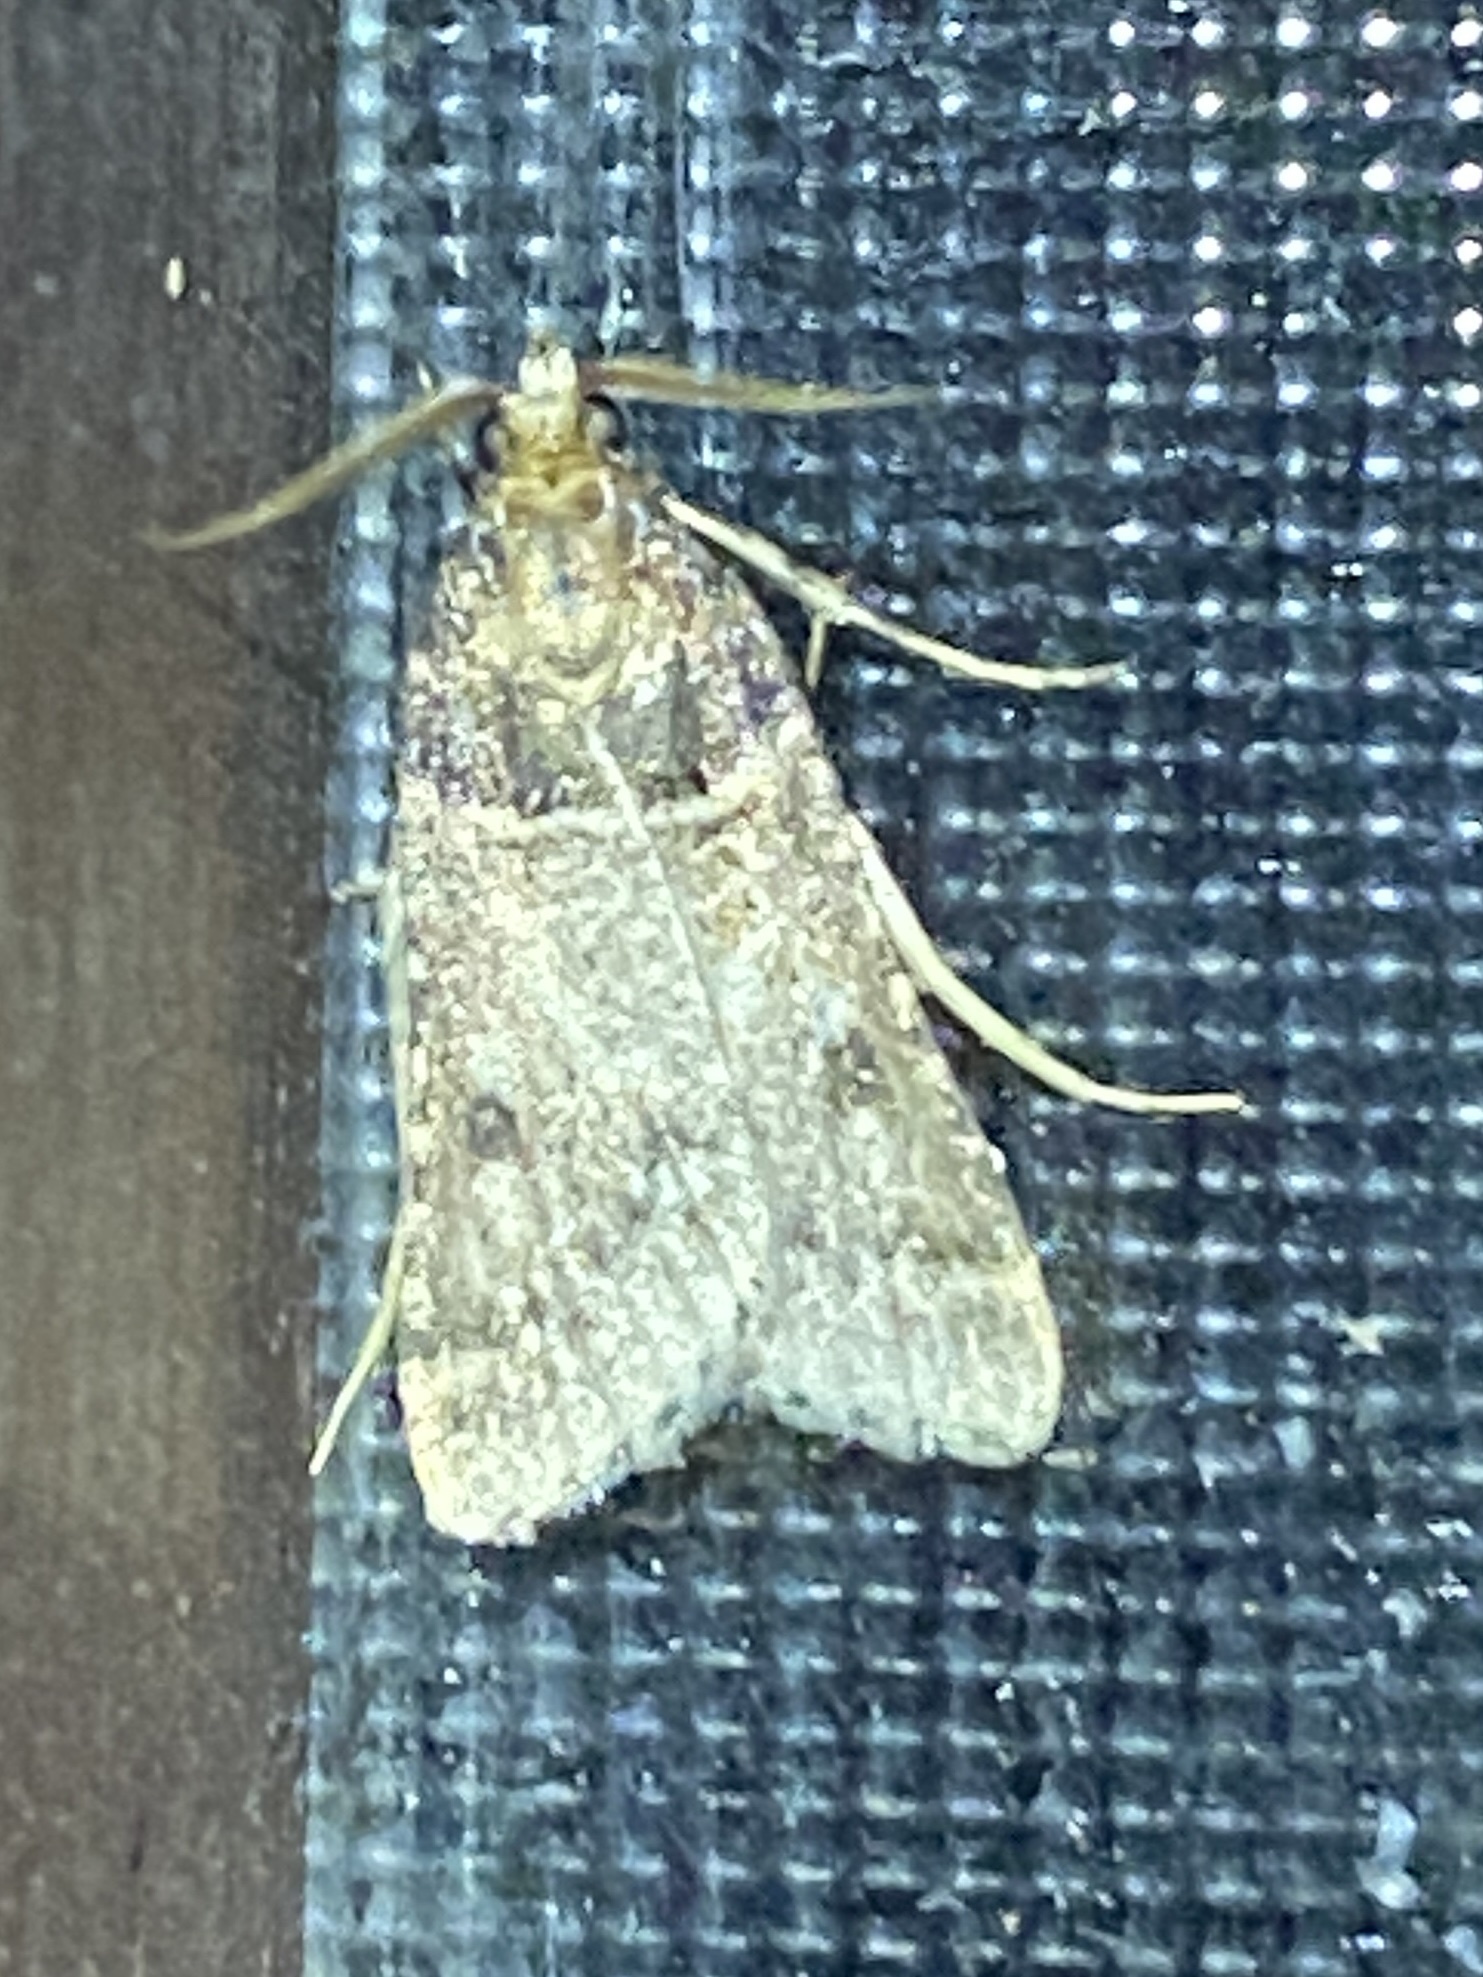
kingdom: Animalia
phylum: Arthropoda
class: Insecta
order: Lepidoptera
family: Pyralidae
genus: Philotis
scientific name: Philotis basalis
